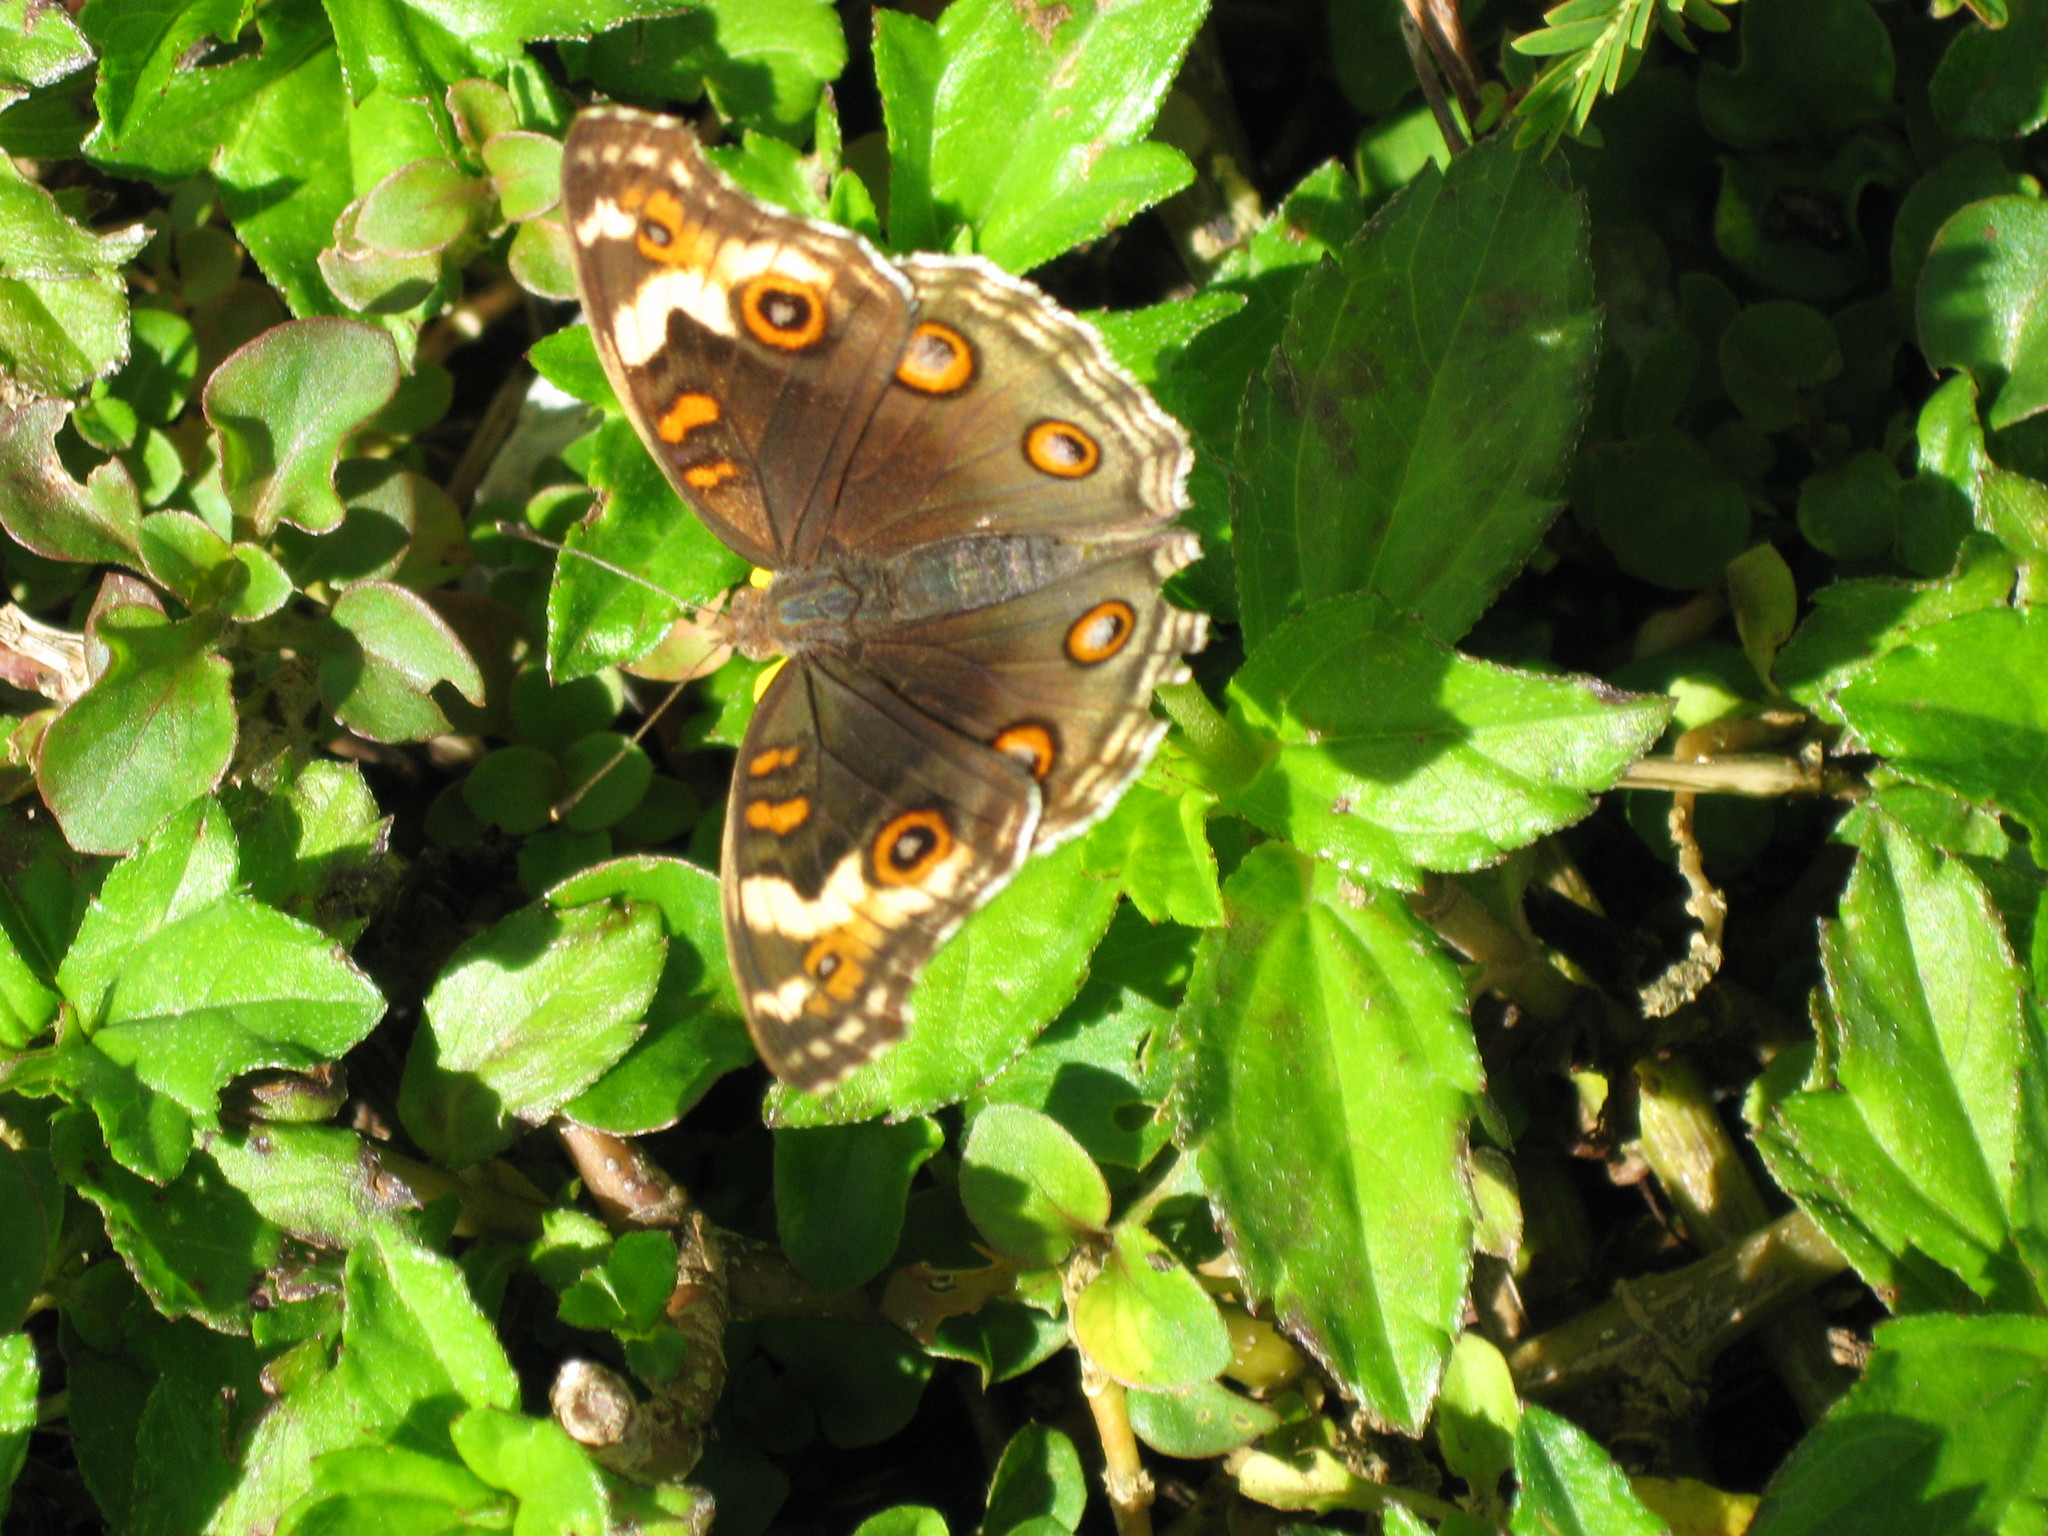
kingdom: Animalia
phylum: Arthropoda
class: Insecta
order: Lepidoptera
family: Nymphalidae
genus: Junonia
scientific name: Junonia orithya
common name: Blue pansy
